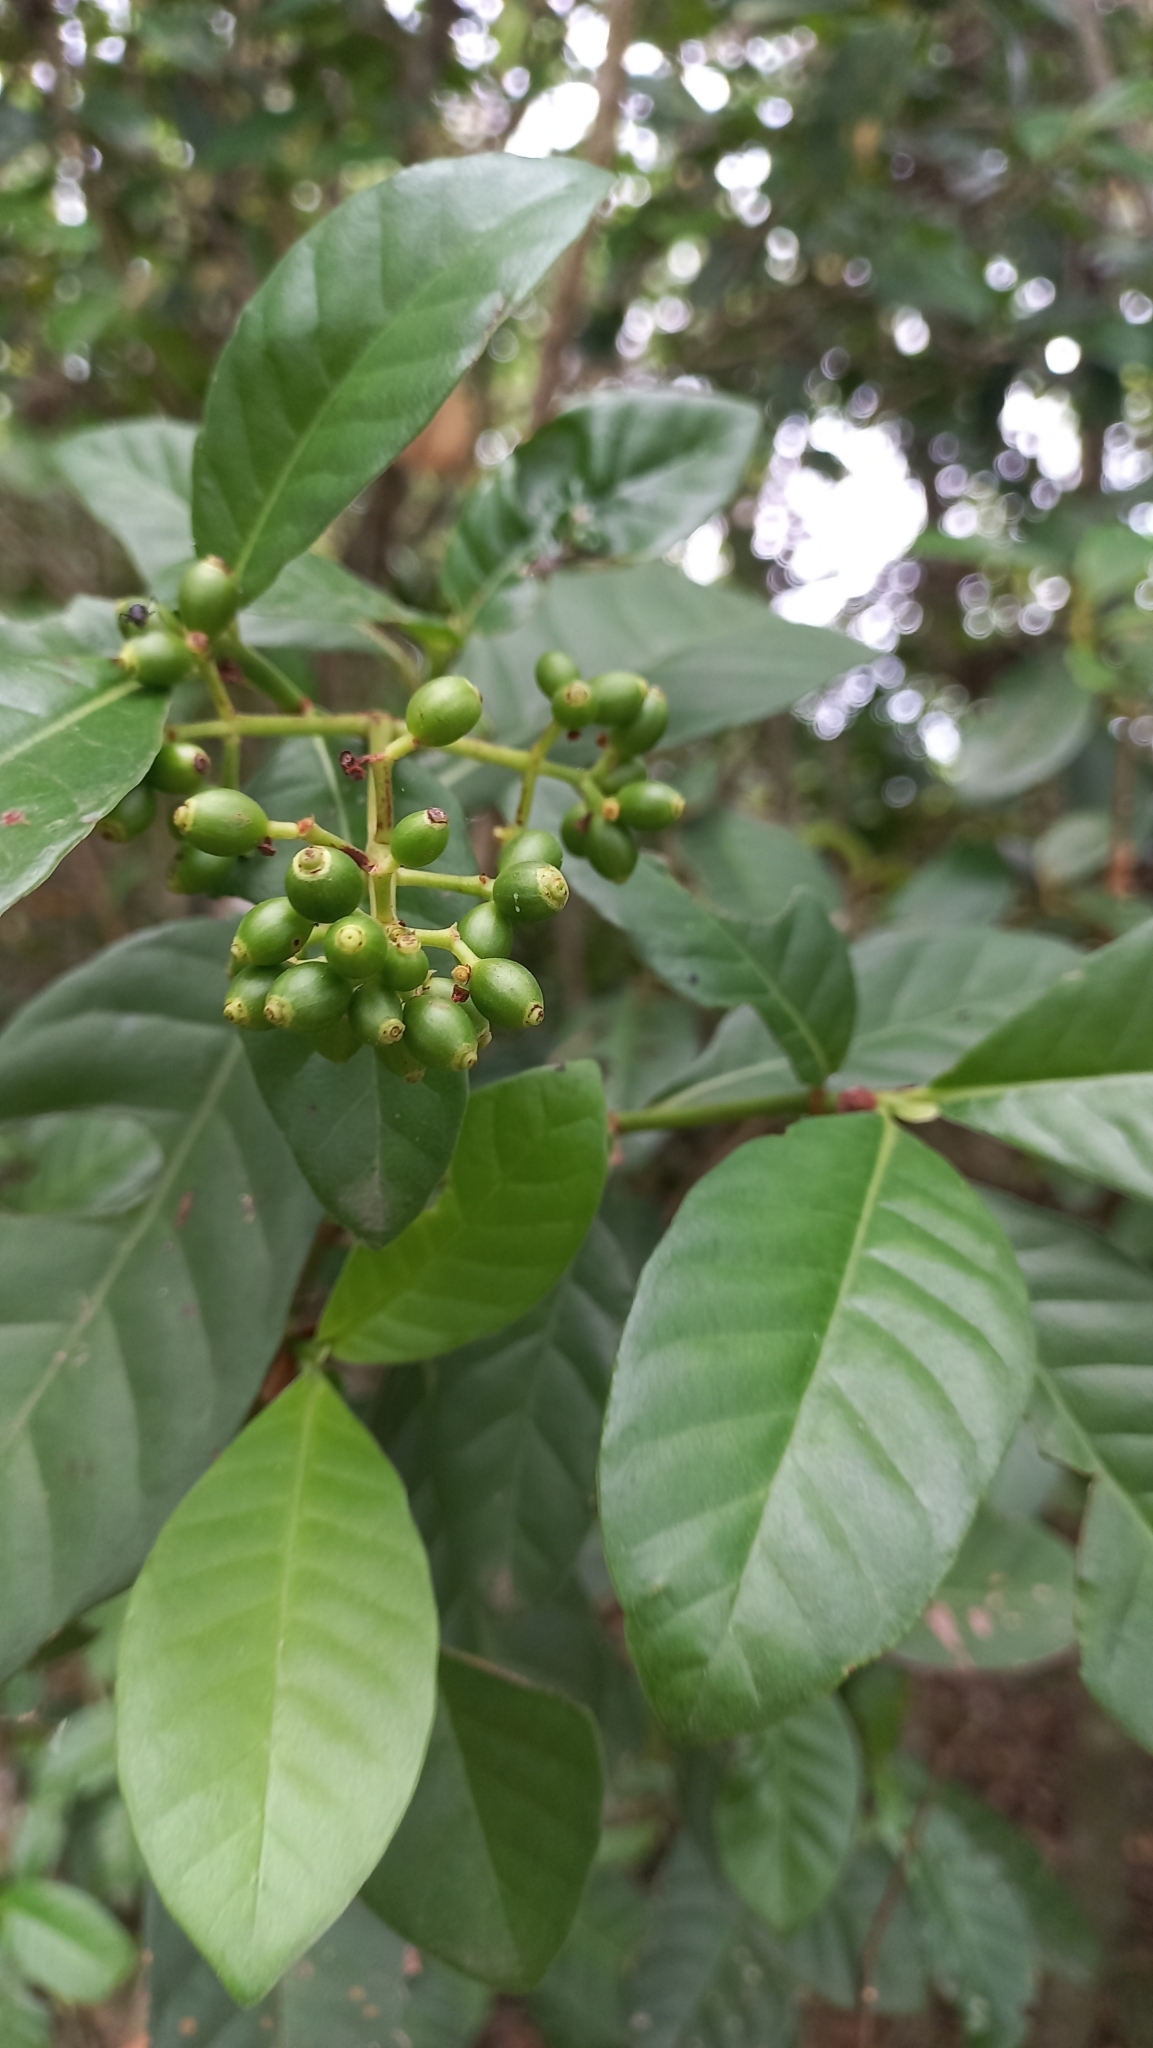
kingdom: Plantae
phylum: Tracheophyta
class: Magnoliopsida
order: Gentianales
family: Rubiaceae
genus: Psychotria
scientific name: Psychotria carthagenensis
